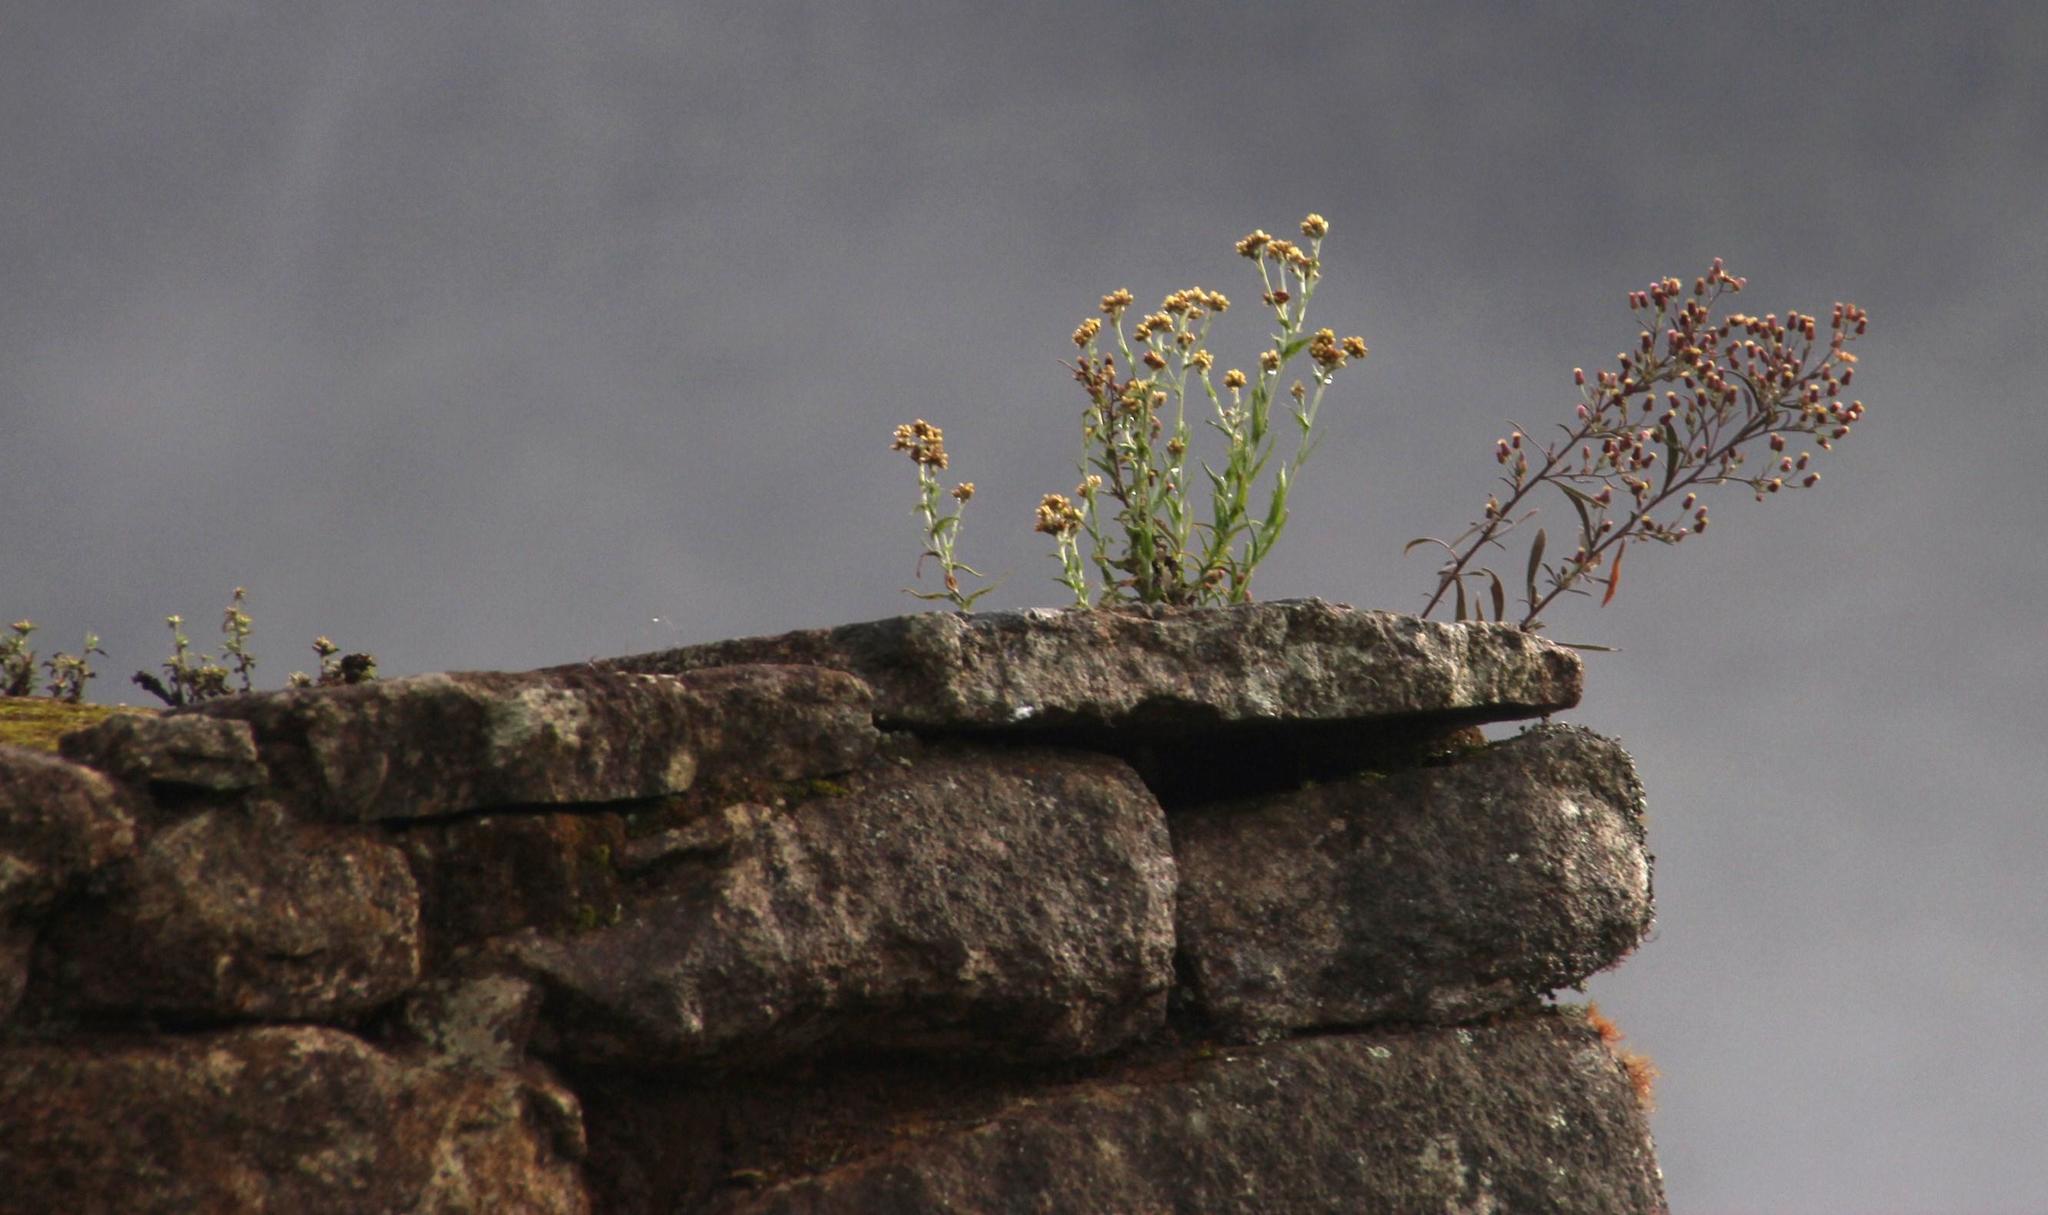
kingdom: Plantae
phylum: Tracheophyta
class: Magnoliopsida
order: Asterales
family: Asteraceae
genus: Pseudognaphalium
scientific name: Pseudognaphalium dysodes
